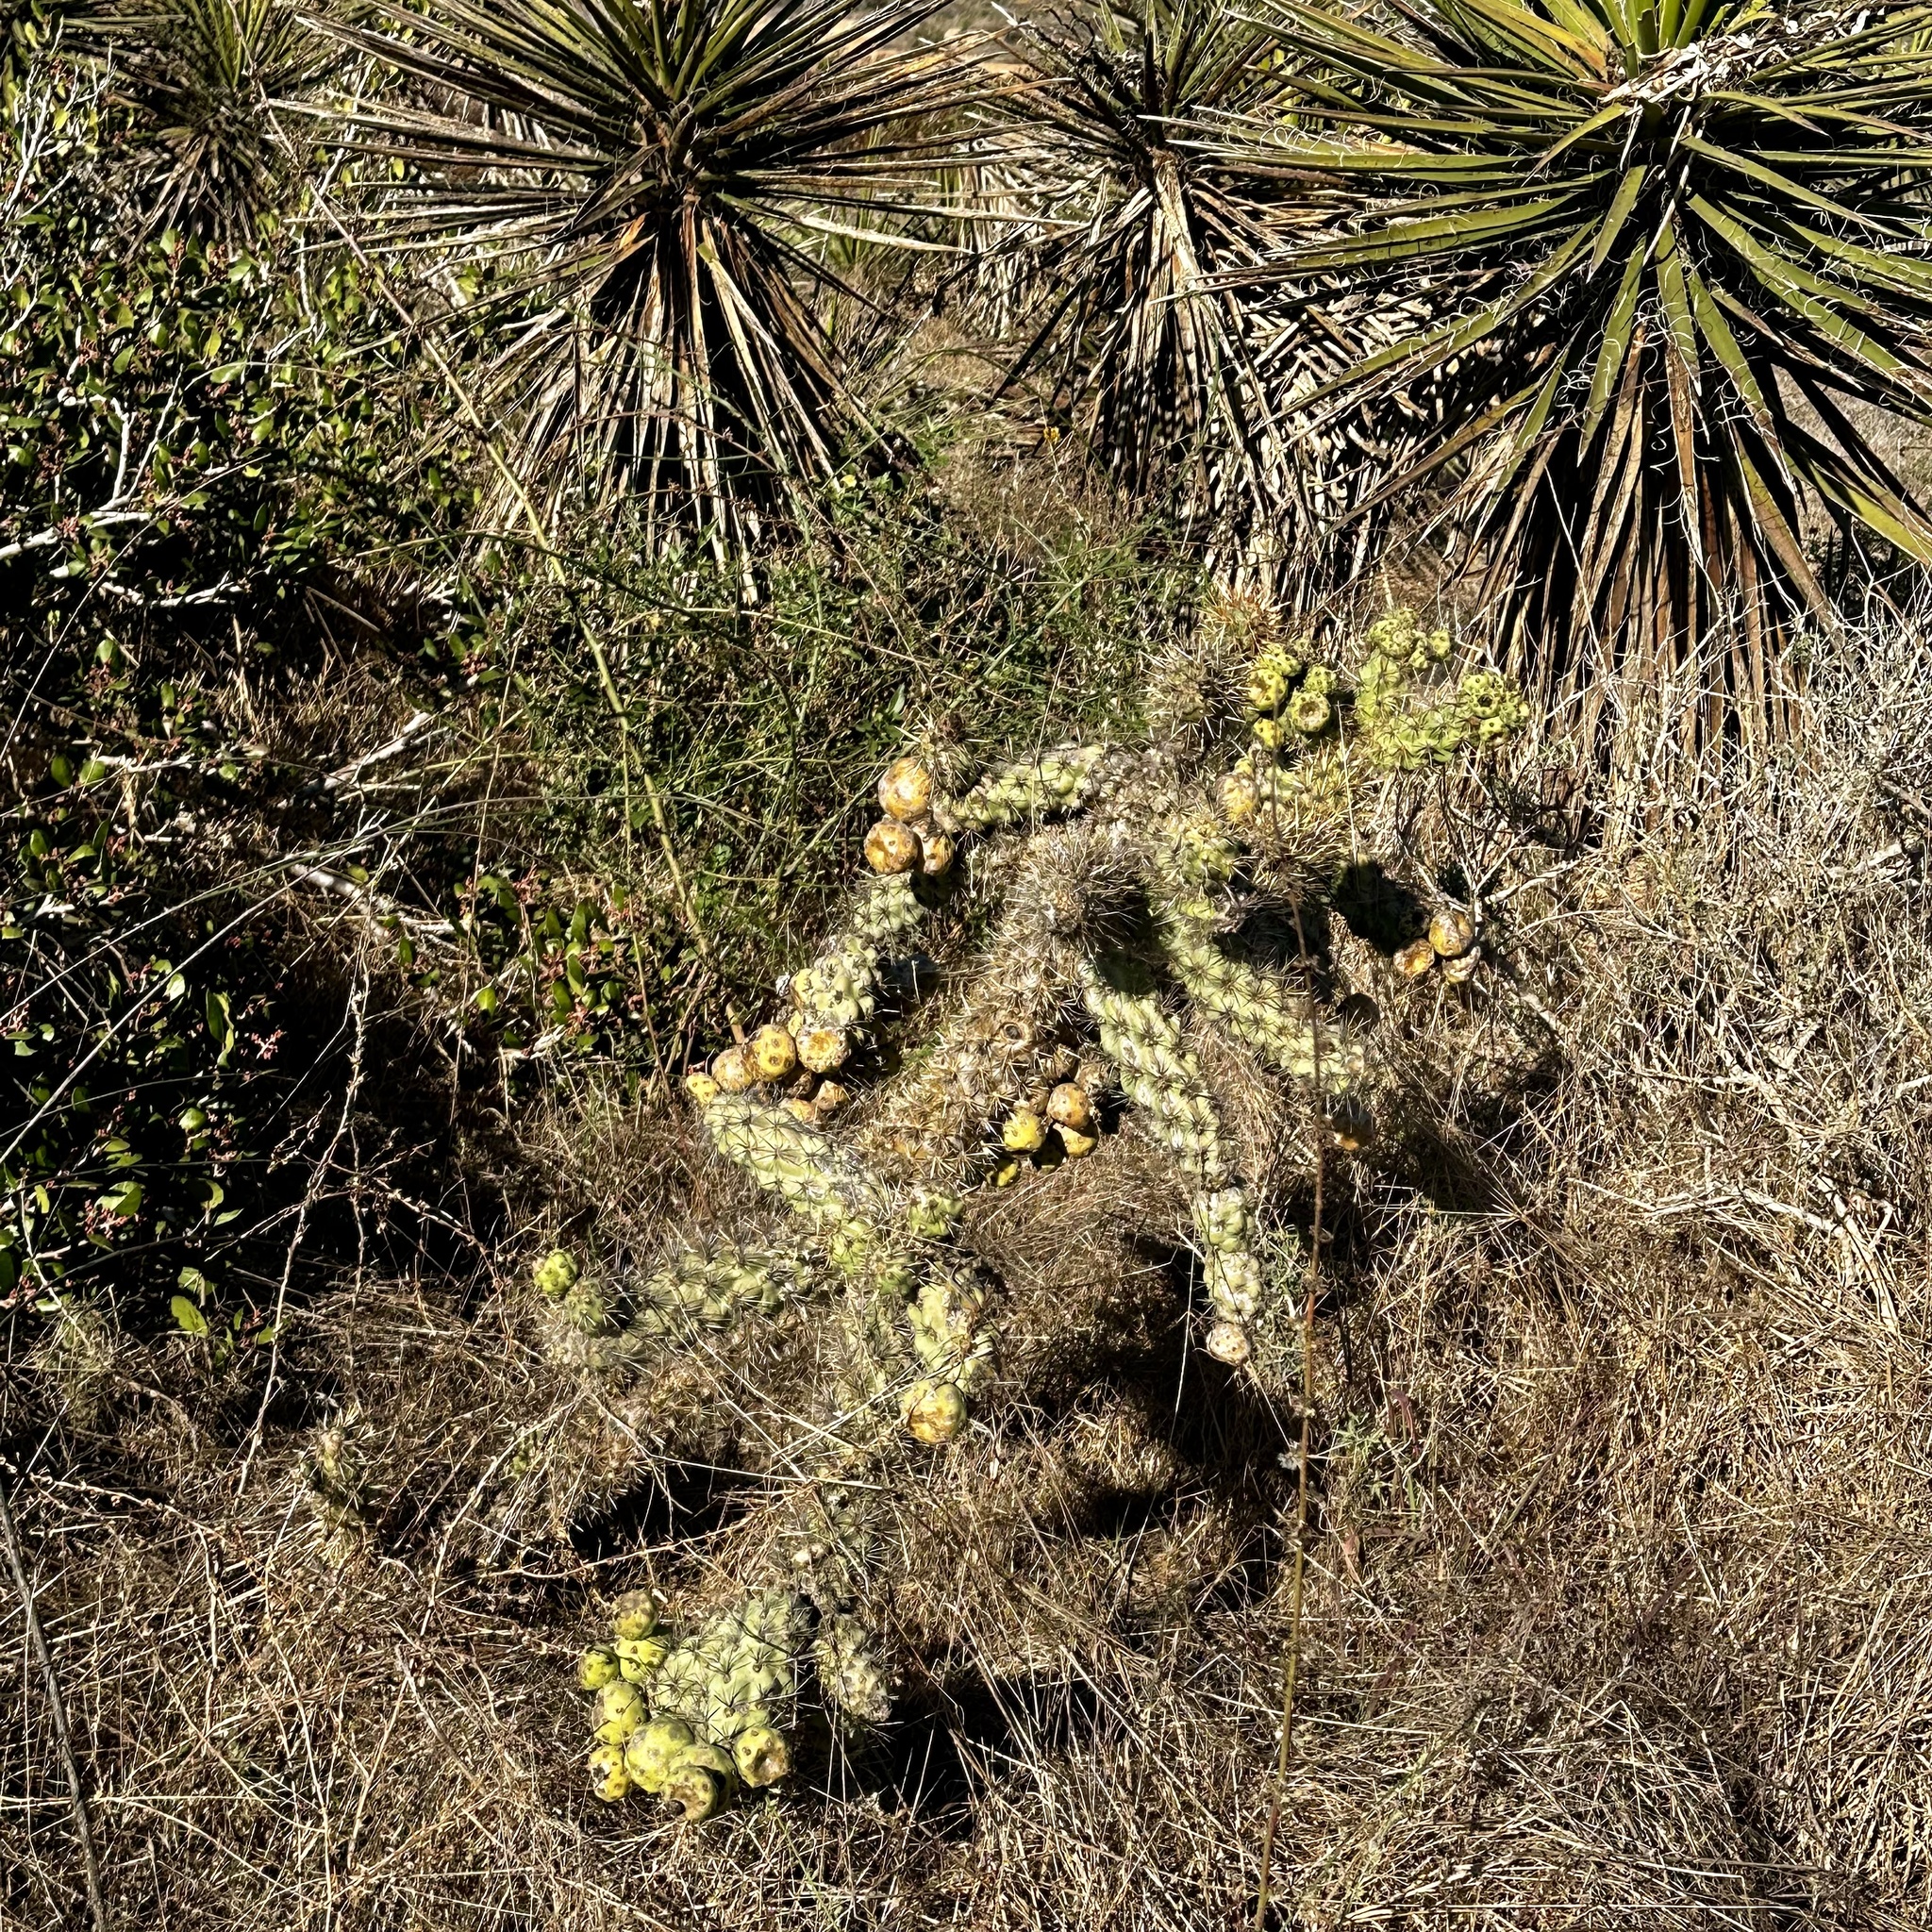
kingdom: Plantae
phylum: Tracheophyta
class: Magnoliopsida
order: Caryophyllales
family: Cactaceae
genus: Cylindropuntia
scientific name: Cylindropuntia prolifera
